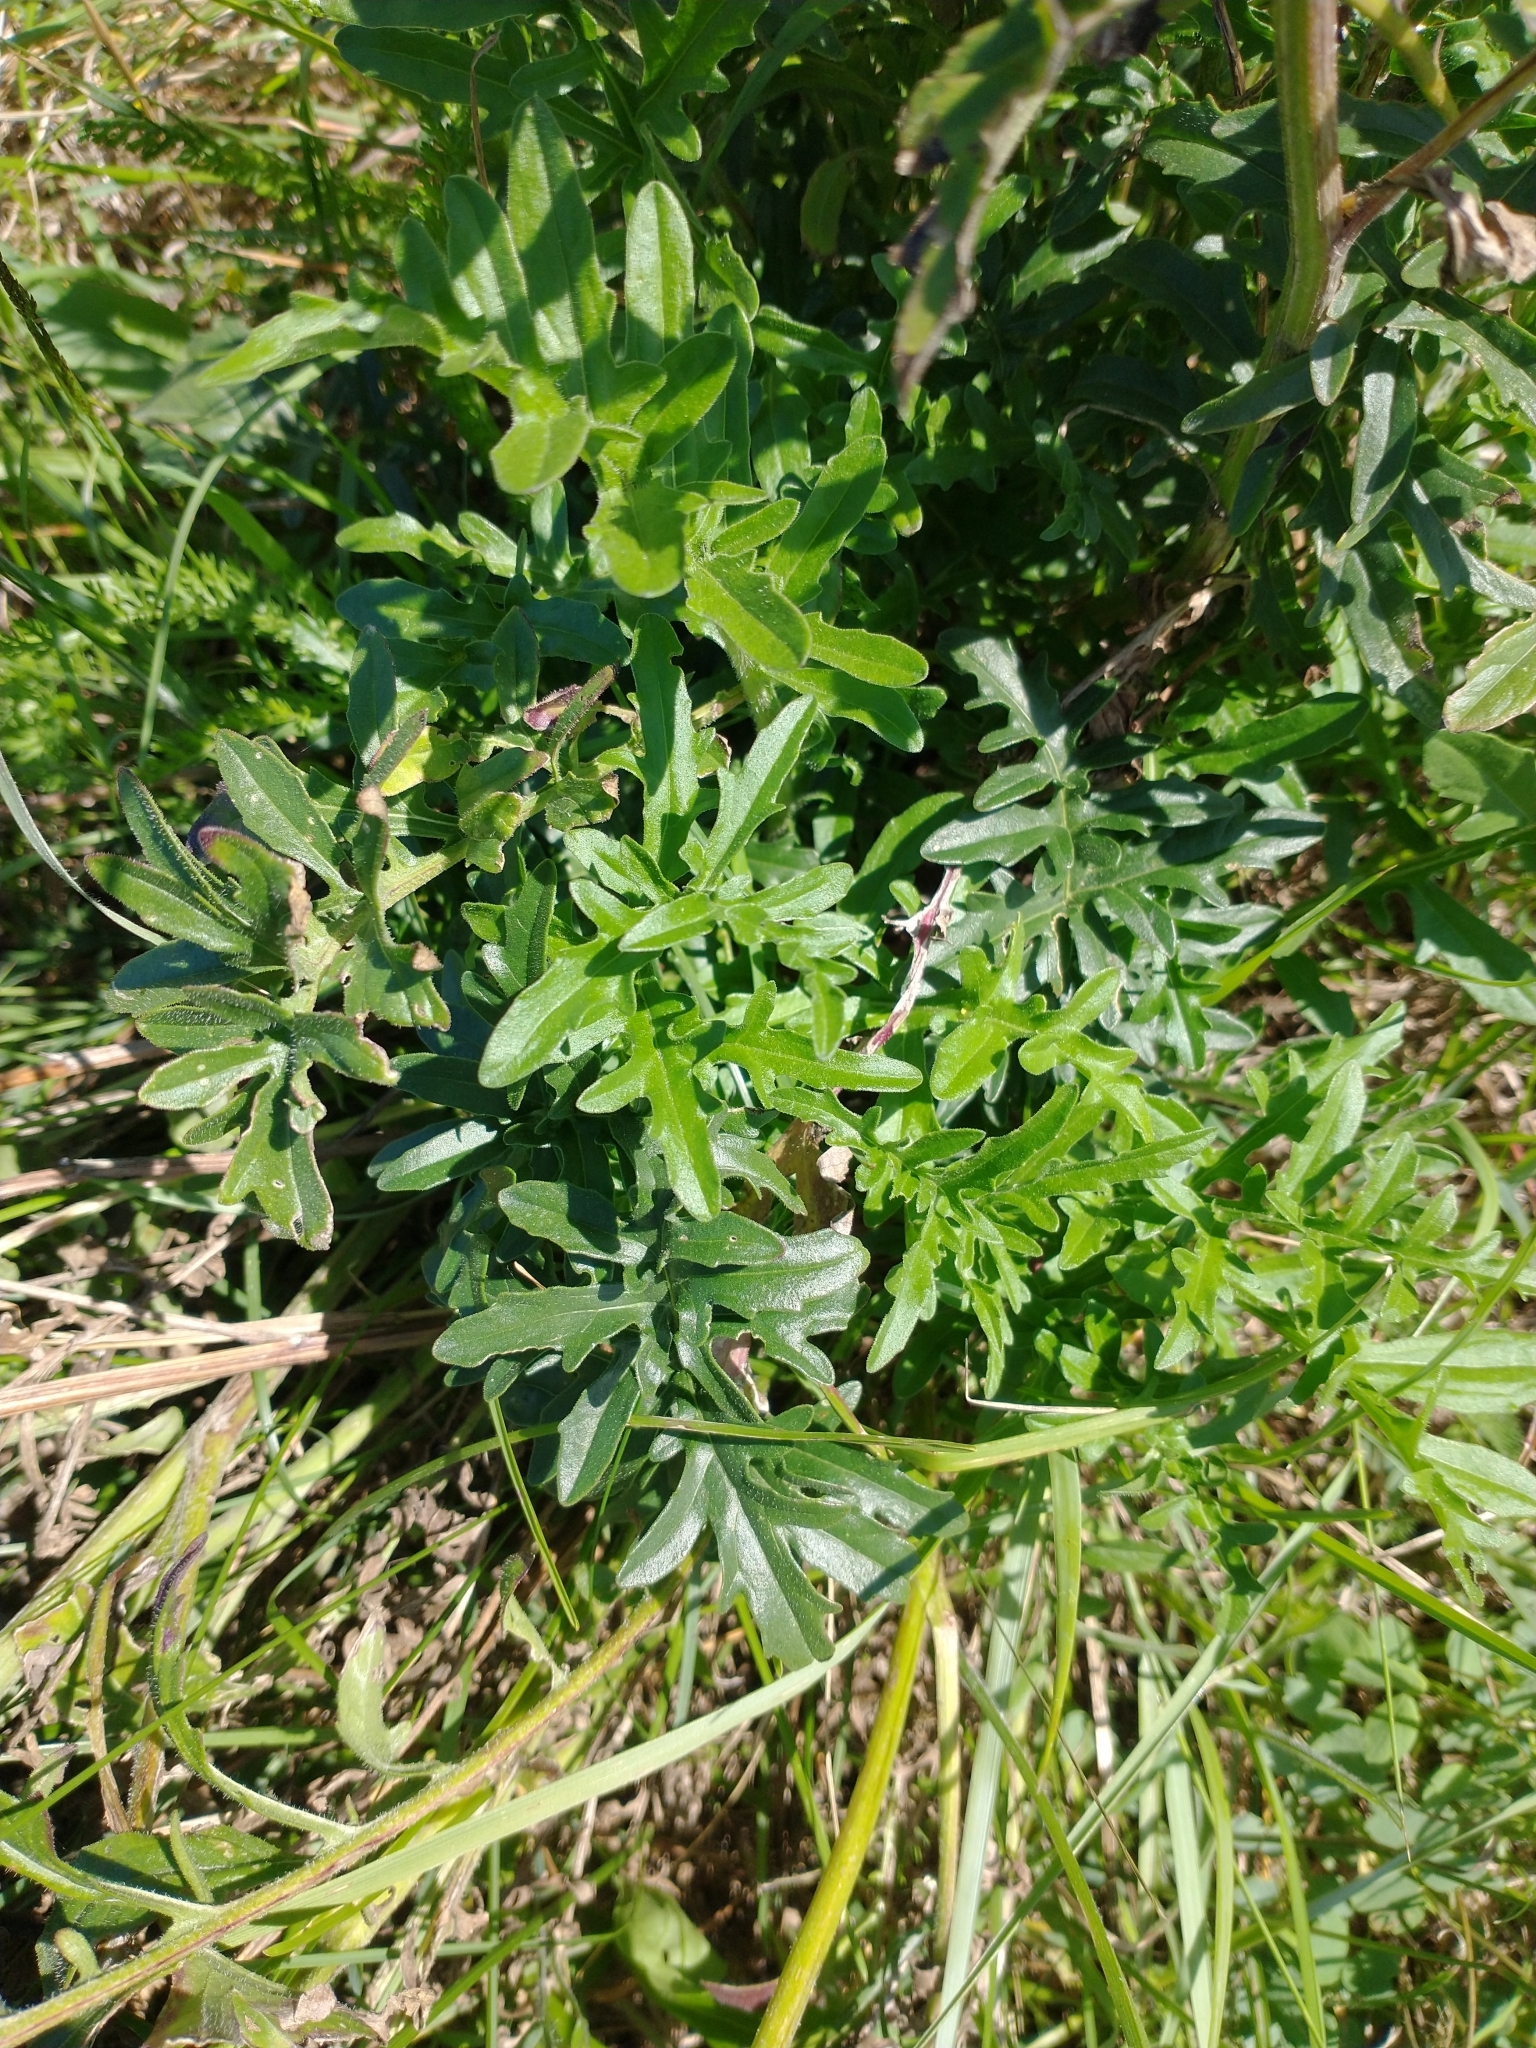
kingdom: Plantae
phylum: Tracheophyta
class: Magnoliopsida
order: Asterales
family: Asteraceae
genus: Centaurea
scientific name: Centaurea scabiosa
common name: Greater knapweed
